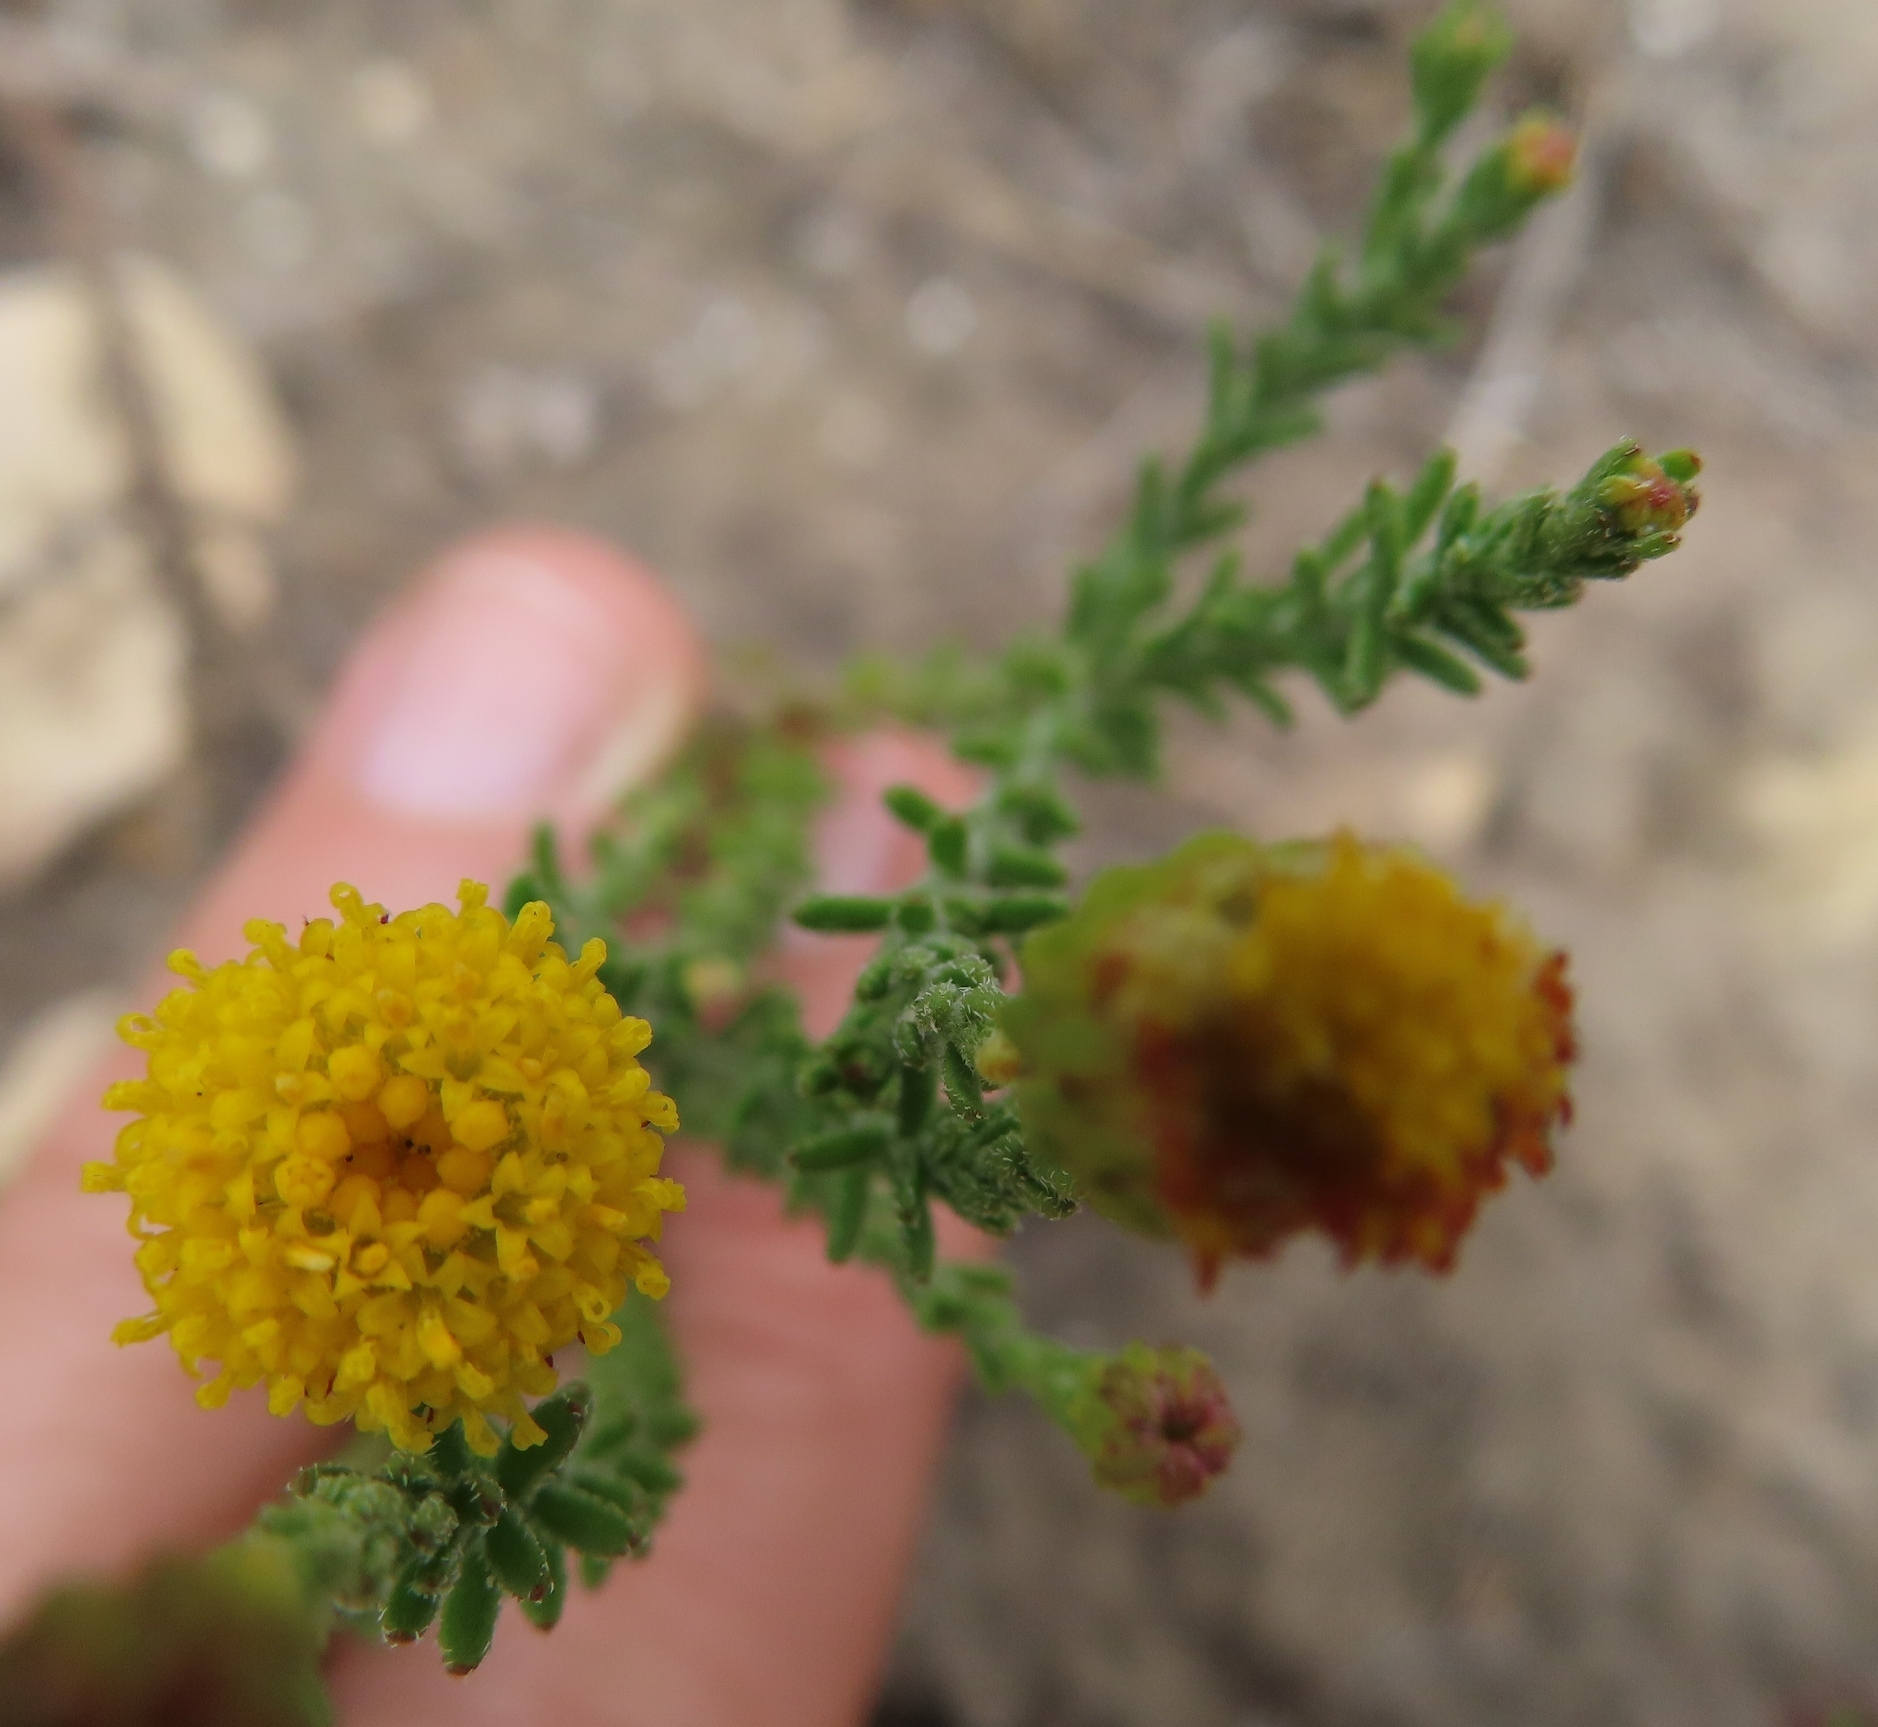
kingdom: Plantae
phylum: Tracheophyta
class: Magnoliopsida
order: Asterales
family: Asteraceae
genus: Chrysocoma
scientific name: Chrysocoma strigosa
